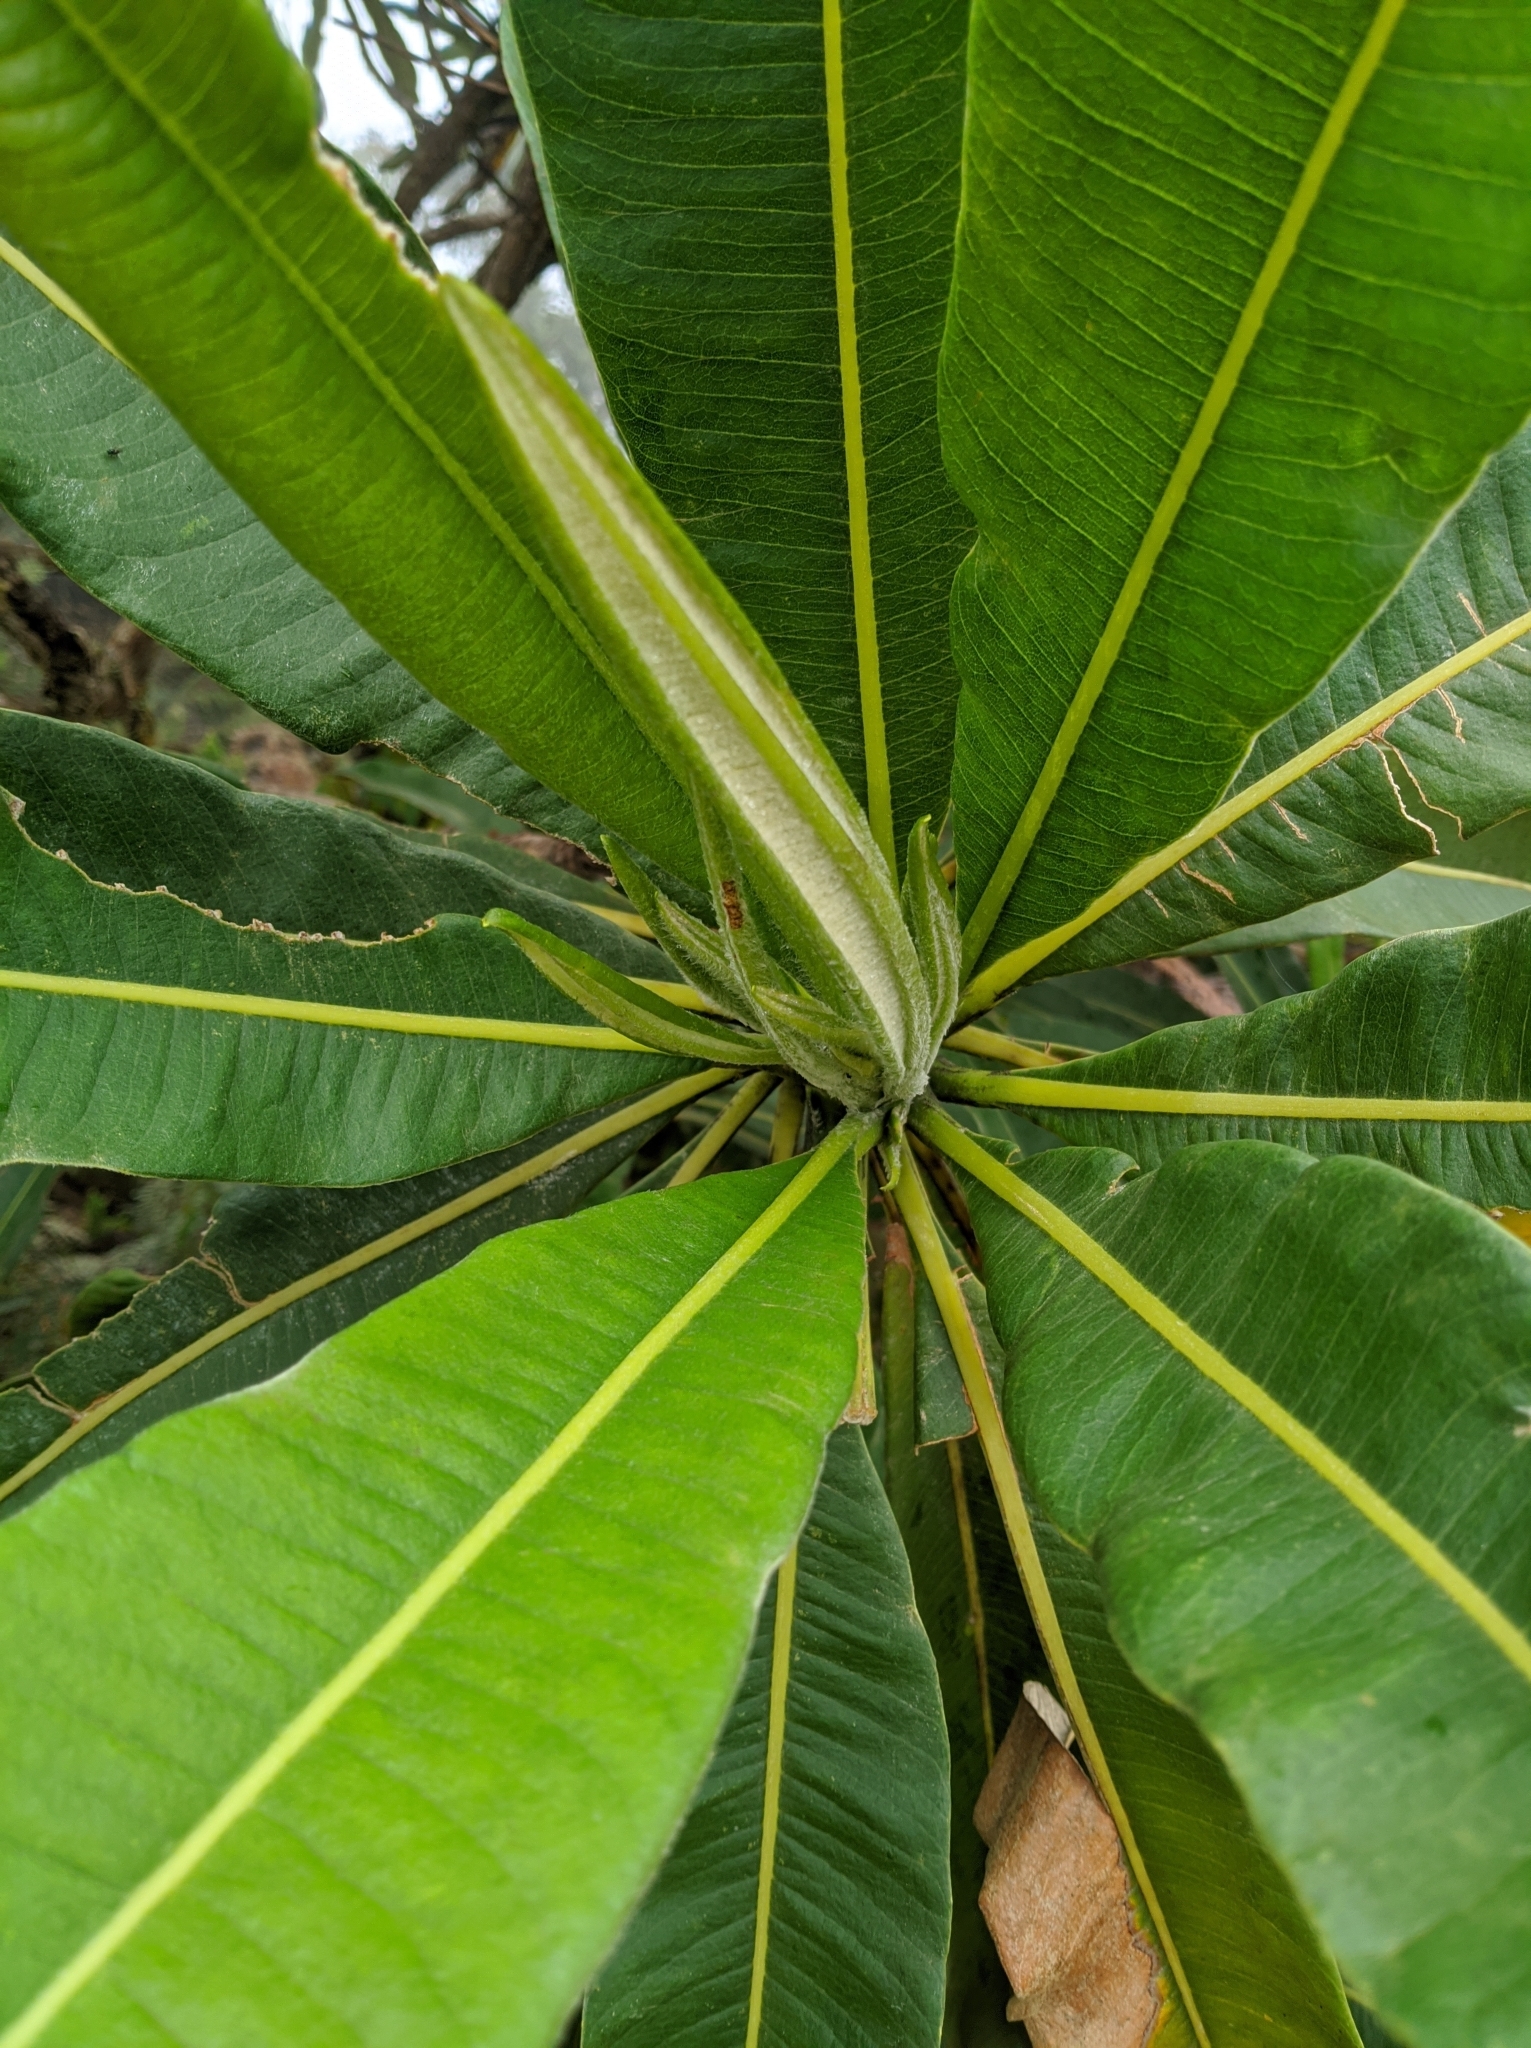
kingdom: Plantae
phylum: Tracheophyta
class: Magnoliopsida
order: Asterales
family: Asteraceae
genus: Espeletia
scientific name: Espeletia neriifolia
